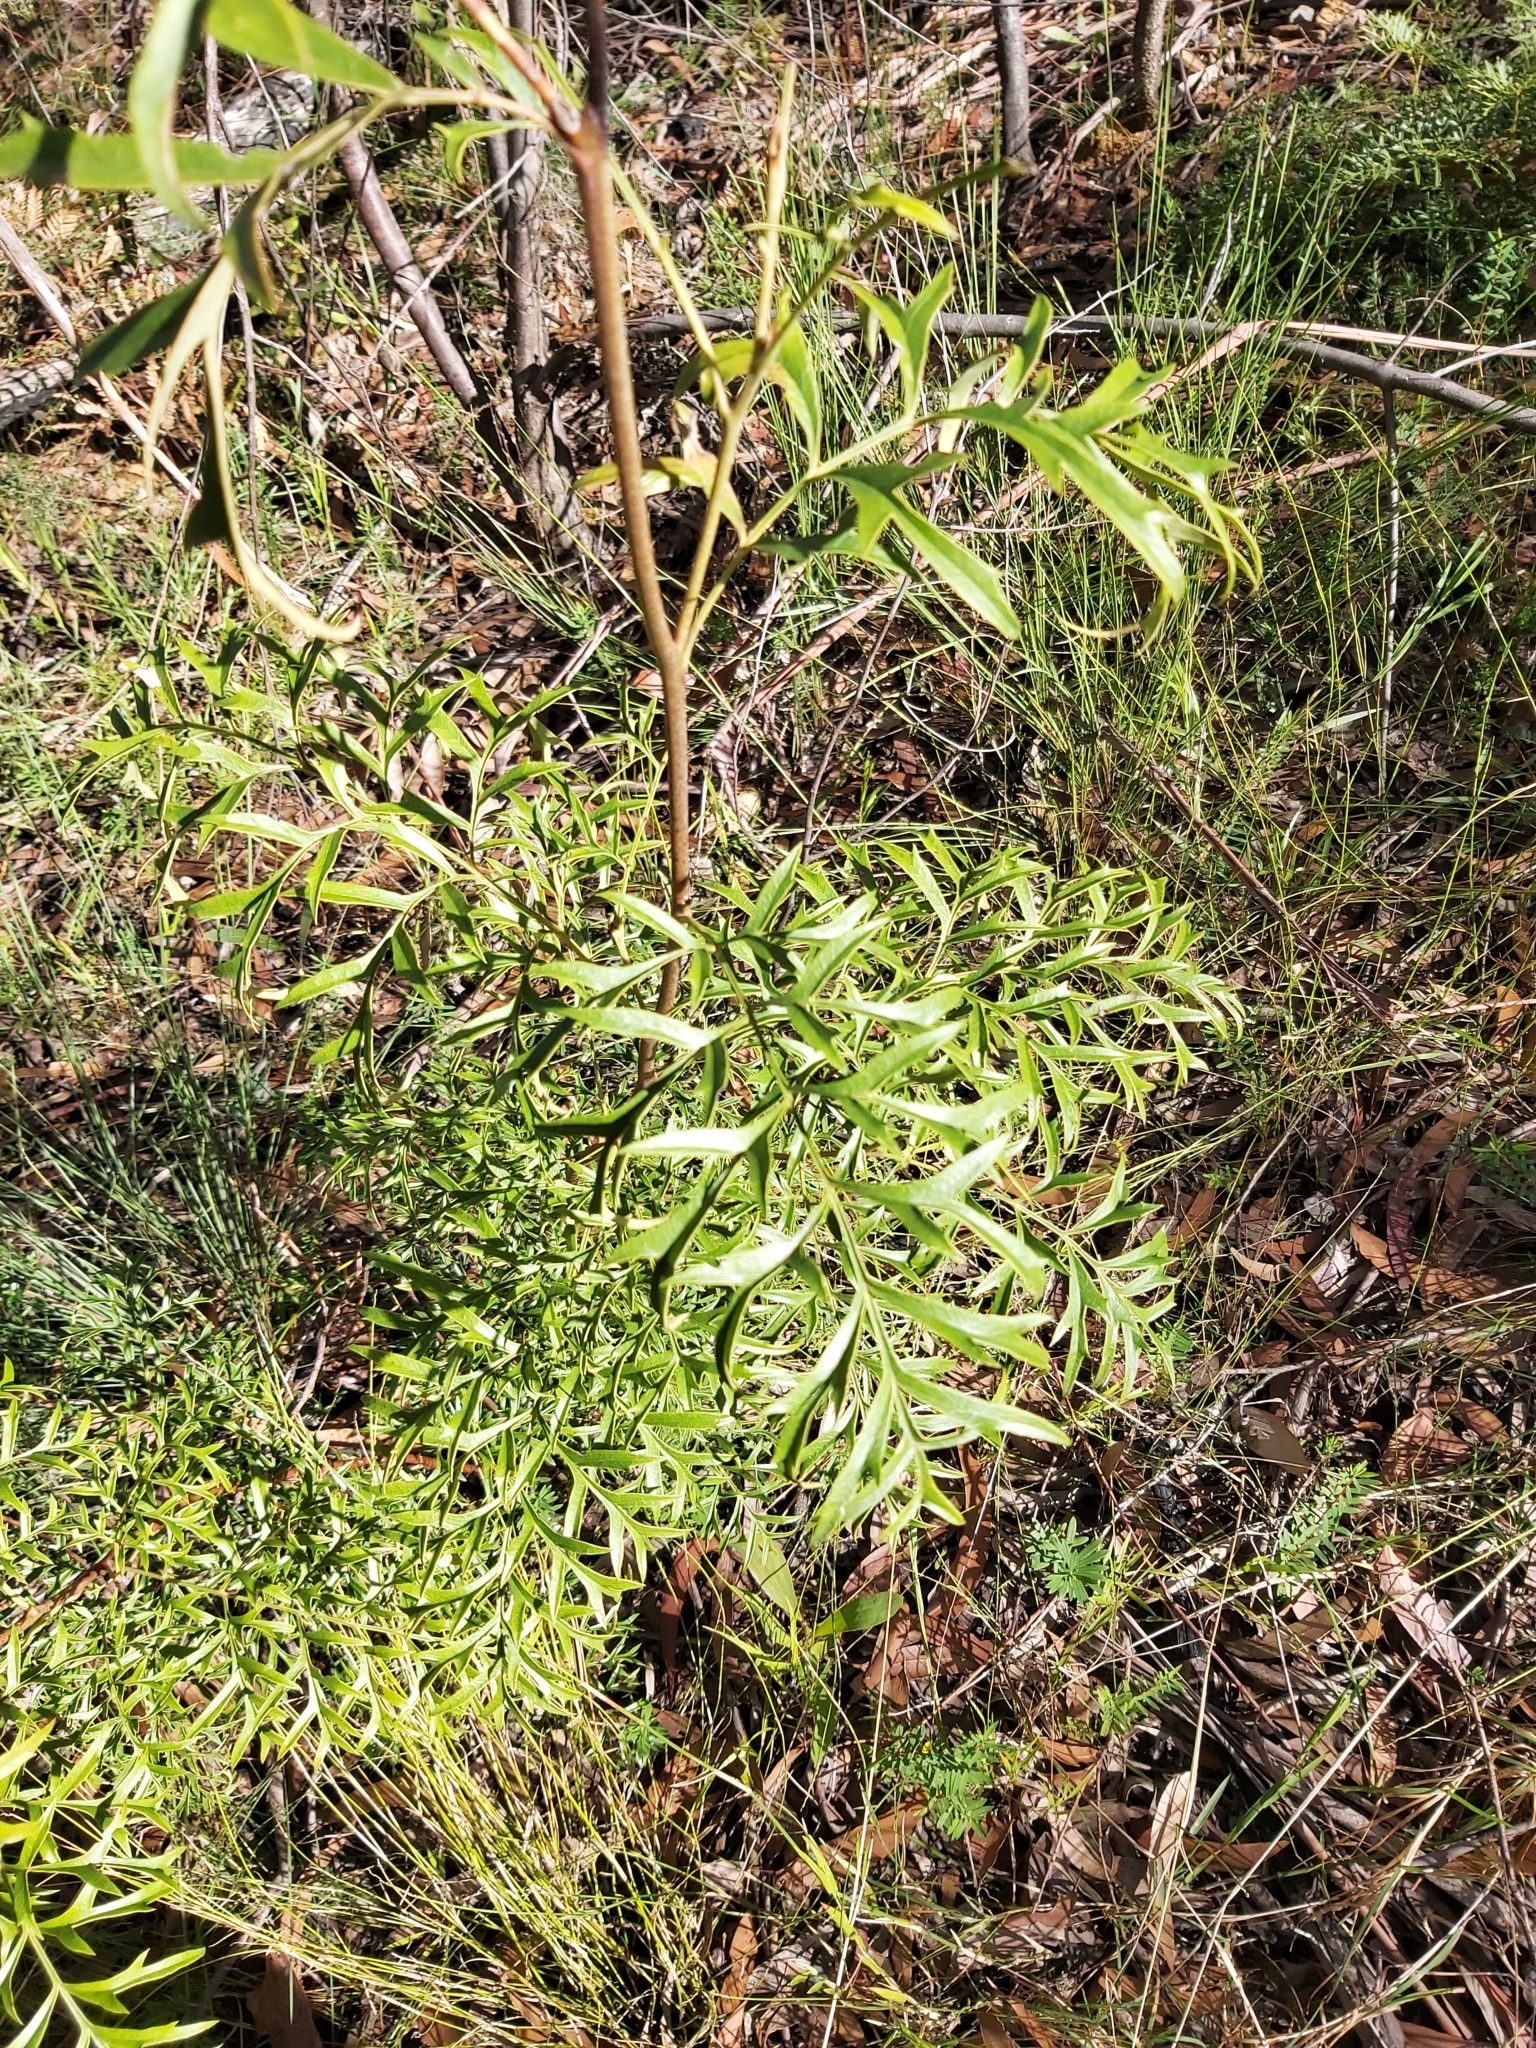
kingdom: Plantae
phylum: Tracheophyta
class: Magnoliopsida
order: Proteales
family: Proteaceae
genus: Lomatia
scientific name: Lomatia silaifolia
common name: Crinklebush
